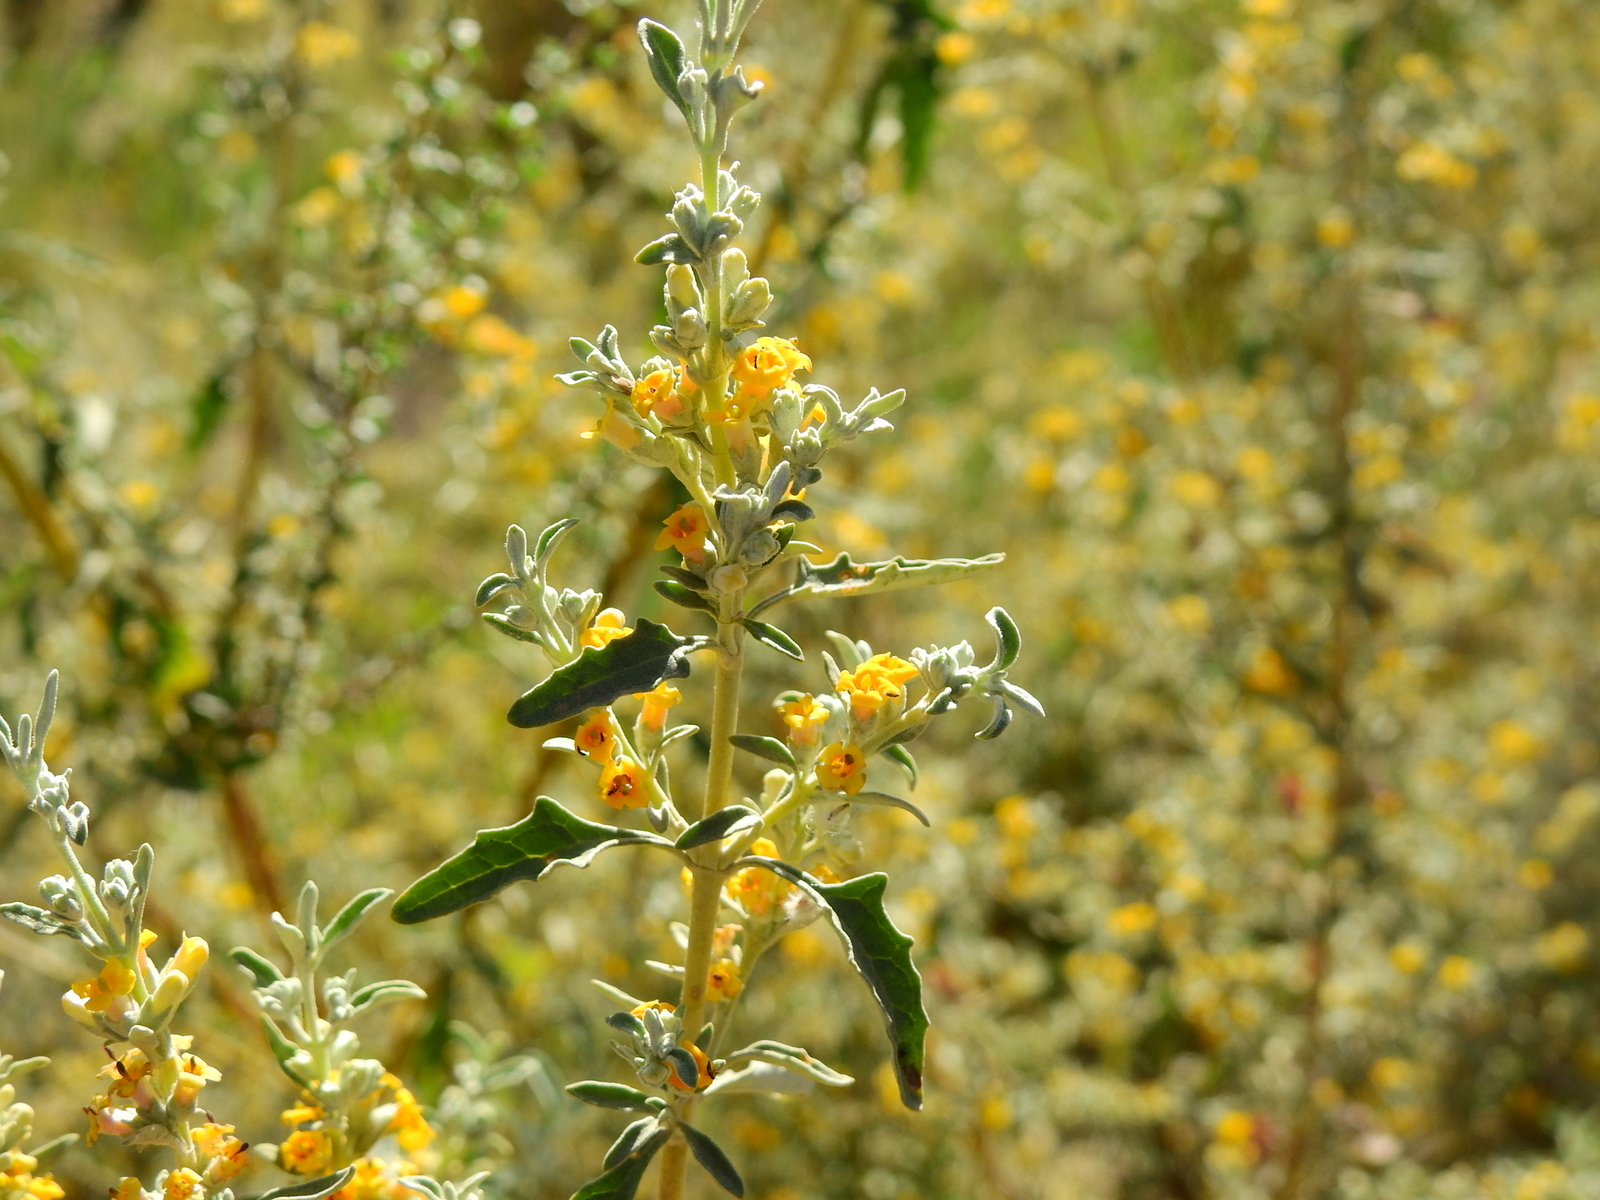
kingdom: Plantae
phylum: Tracheophyta
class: Magnoliopsida
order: Lamiales
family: Scrophulariaceae
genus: Buddleja
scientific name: Buddleja mendozensis
